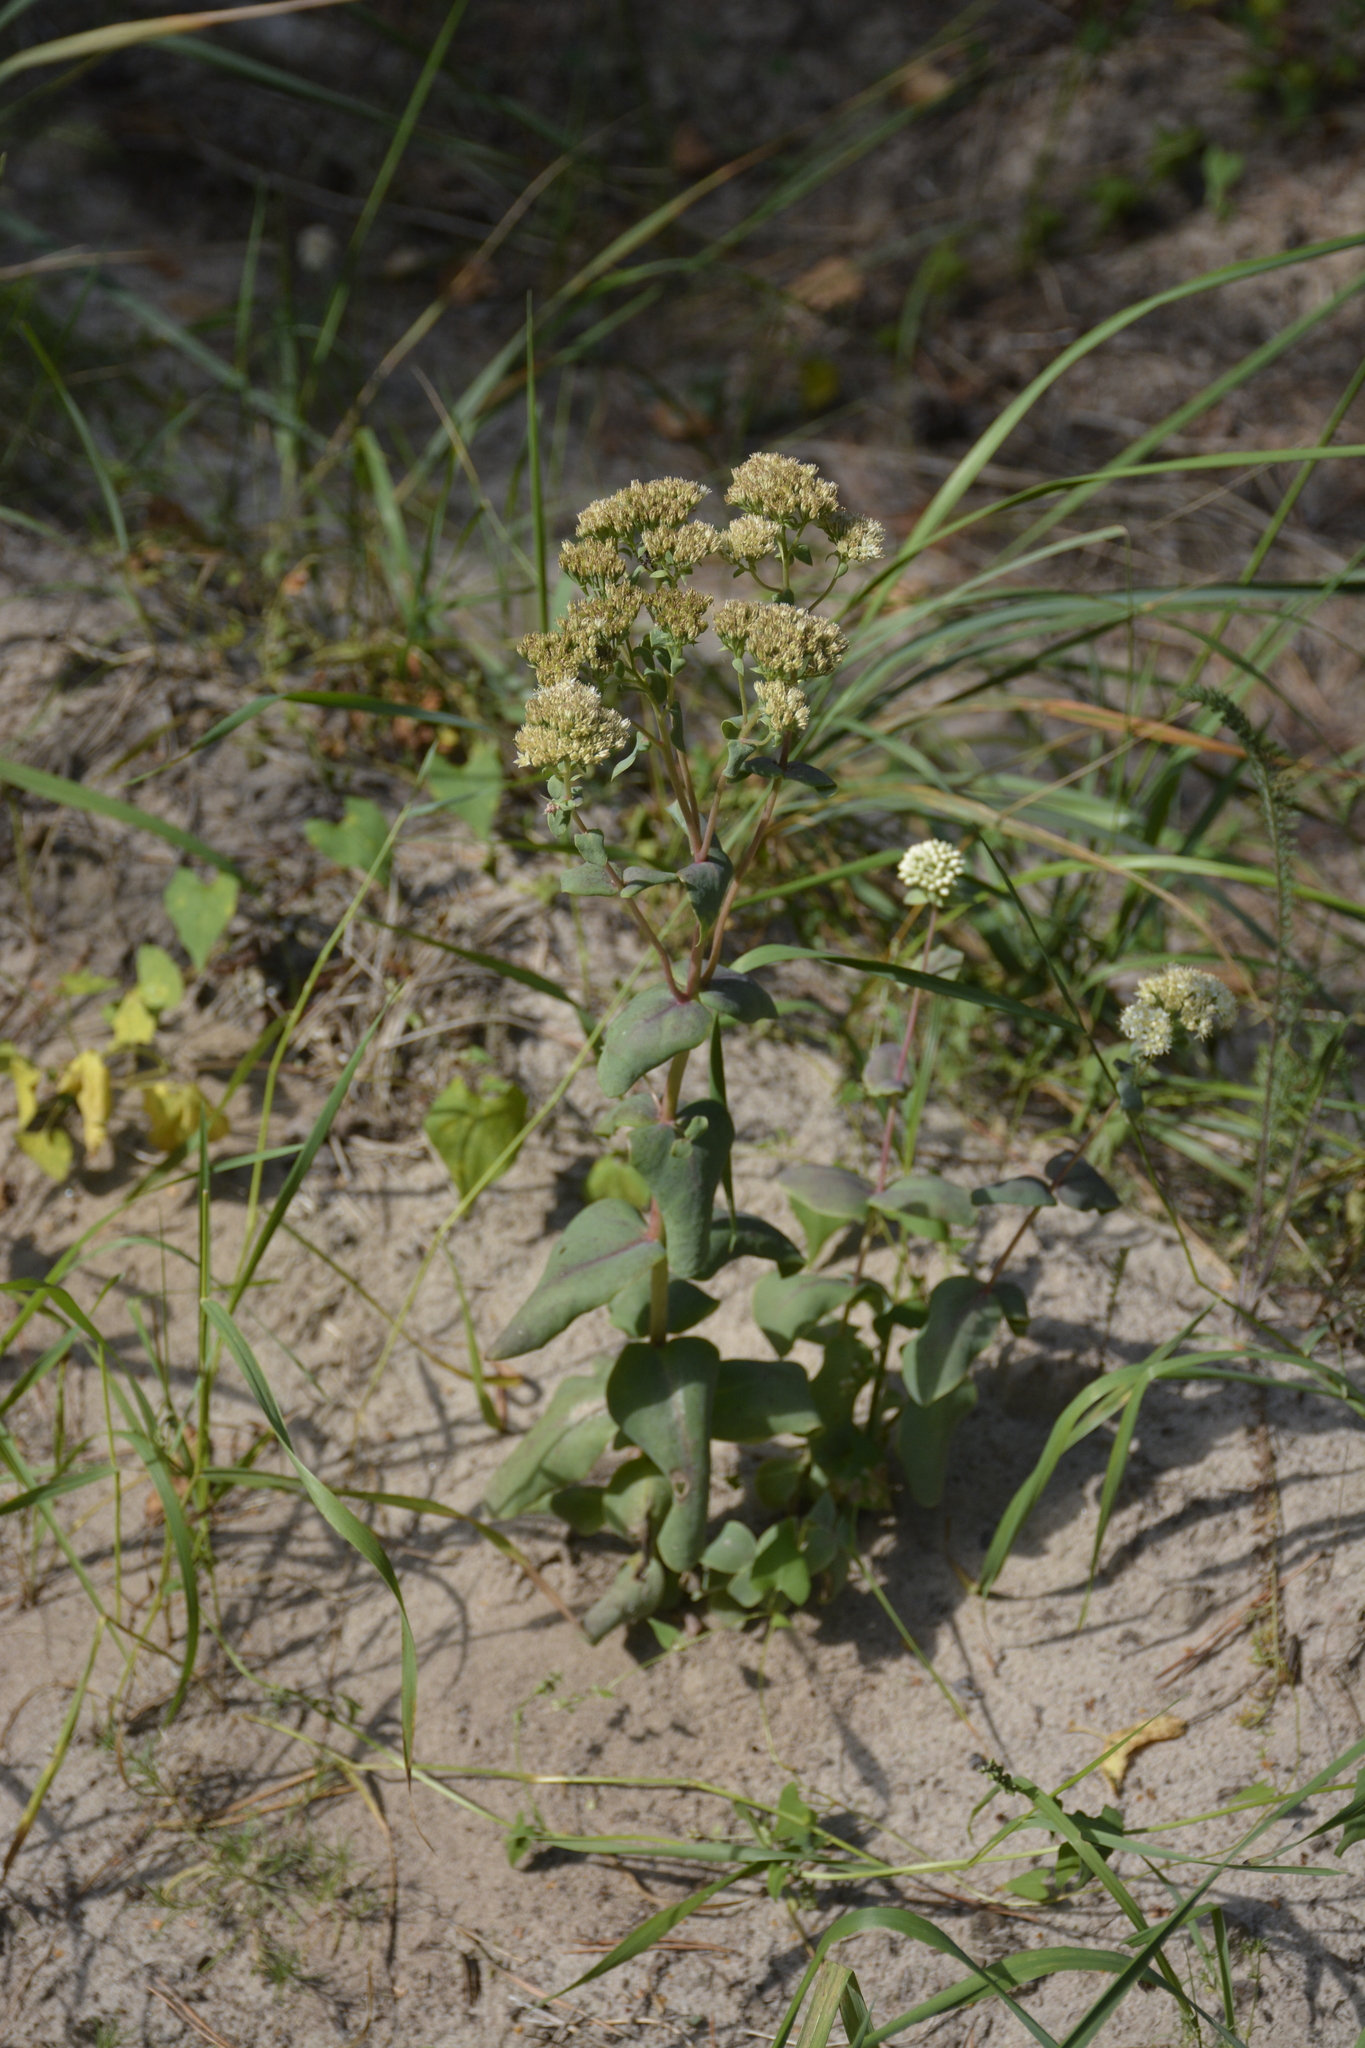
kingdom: Plantae
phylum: Tracheophyta
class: Magnoliopsida
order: Saxifragales
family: Crassulaceae
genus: Hylotelephium
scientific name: Hylotelephium maximum
